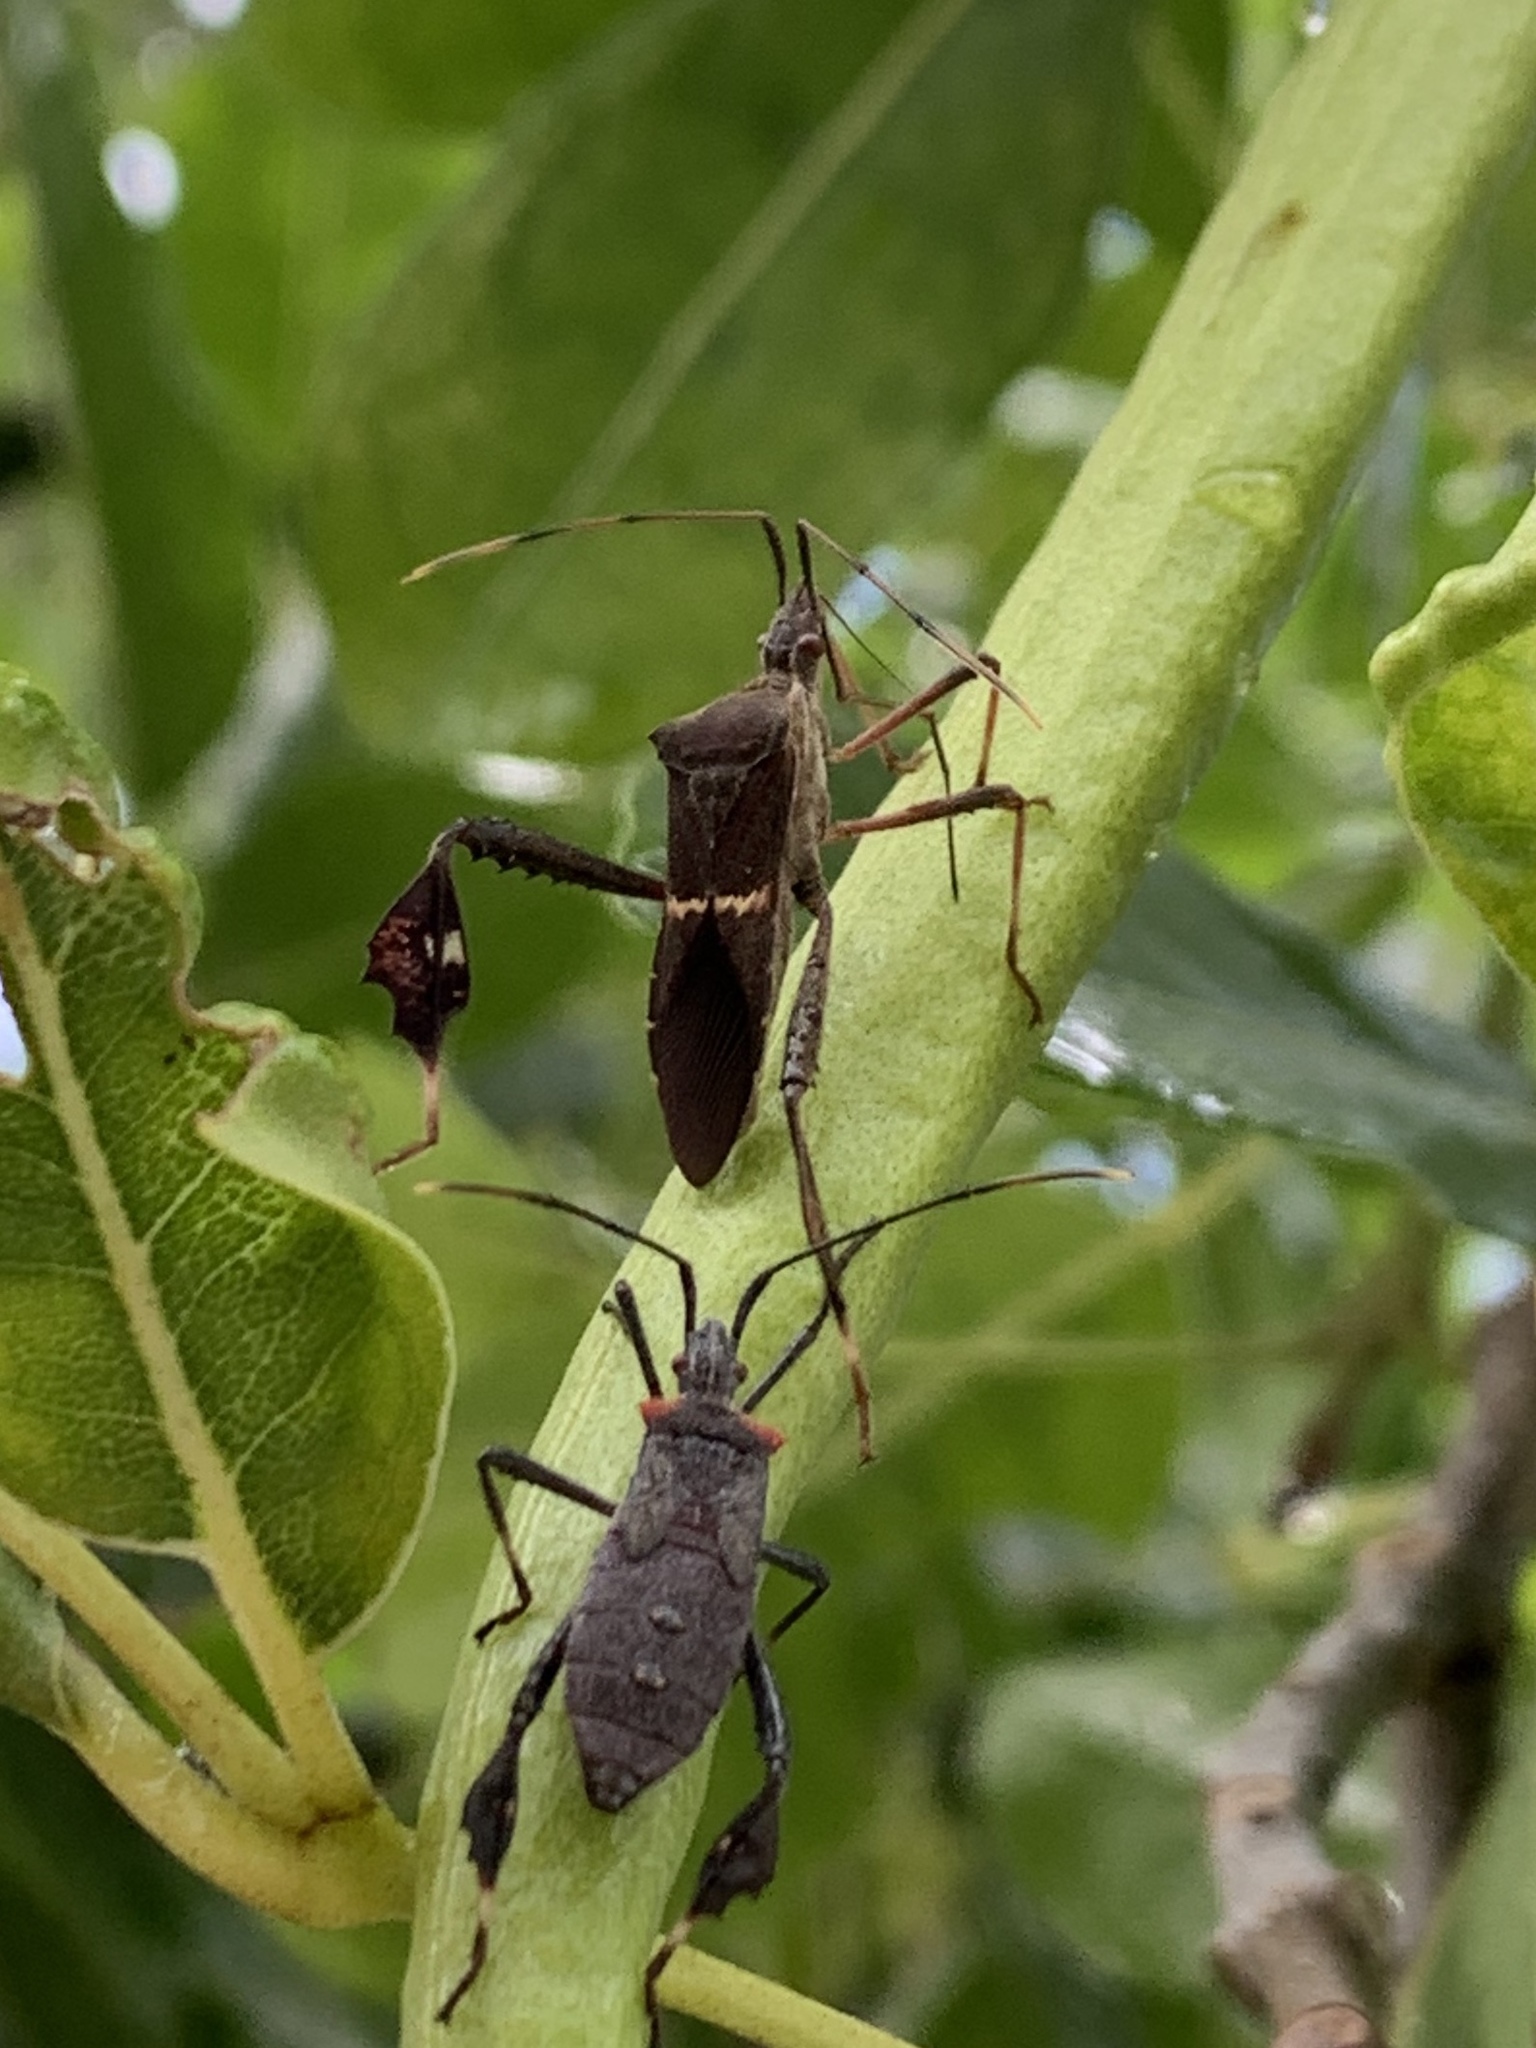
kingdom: Animalia
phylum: Arthropoda
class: Insecta
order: Hemiptera
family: Coreidae
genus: Leptoglossus
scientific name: Leptoglossus concolor
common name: Leaf-footed bug
